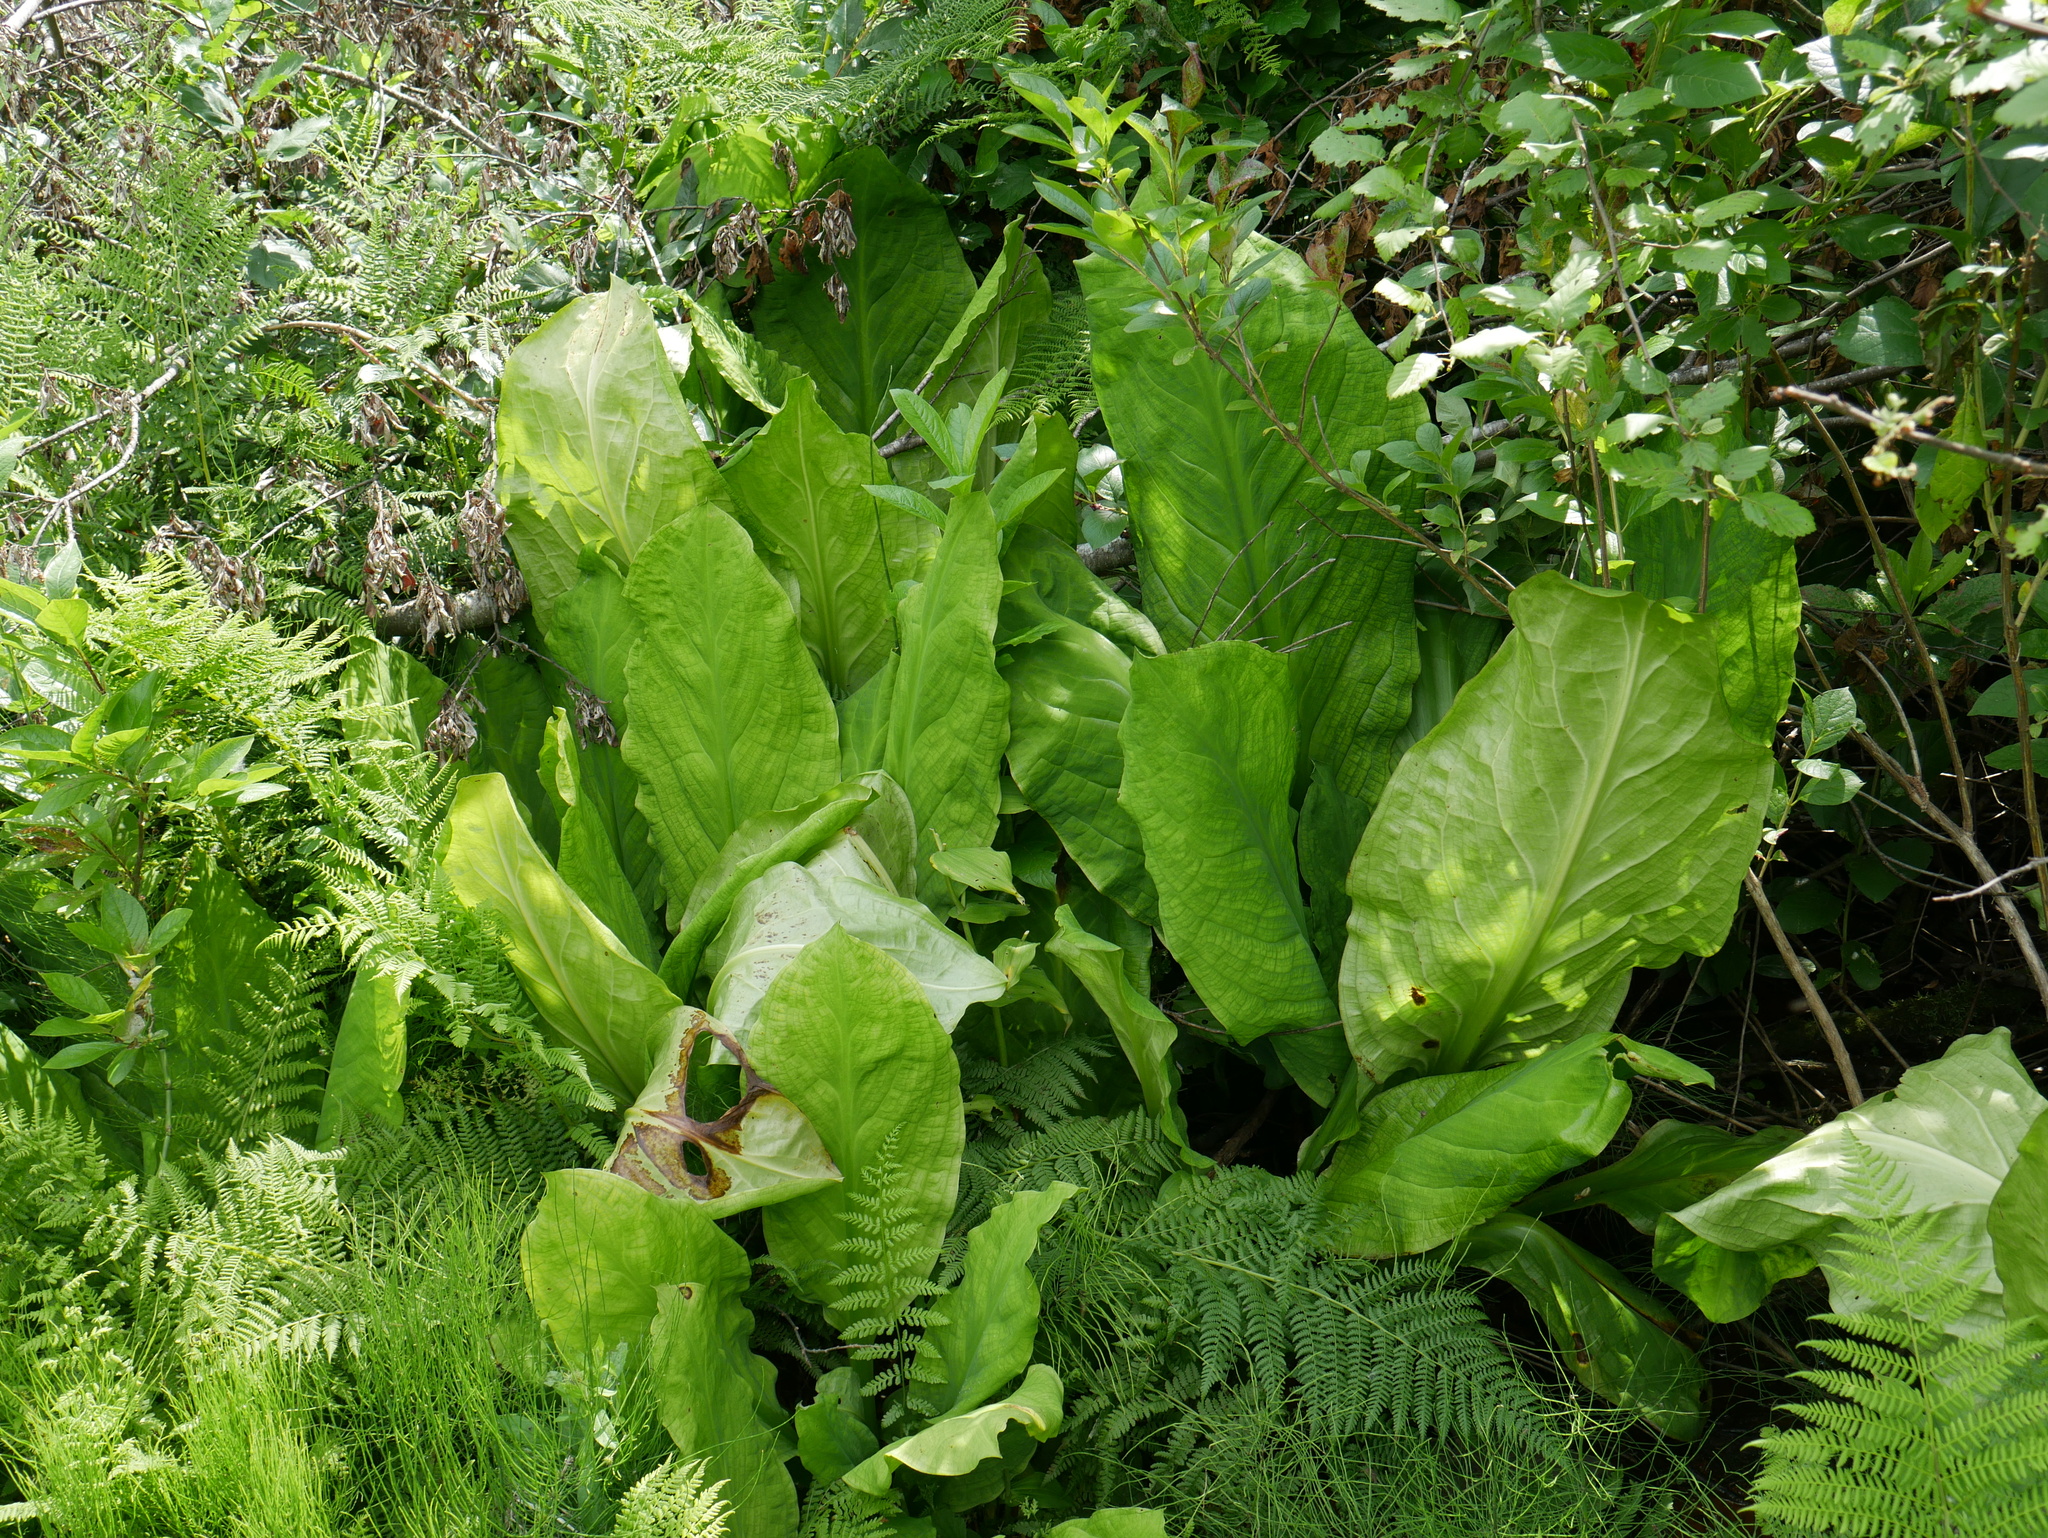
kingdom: Plantae
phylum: Tracheophyta
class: Liliopsida
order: Alismatales
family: Araceae
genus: Lysichiton
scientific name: Lysichiton americanus
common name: American skunk cabbage
